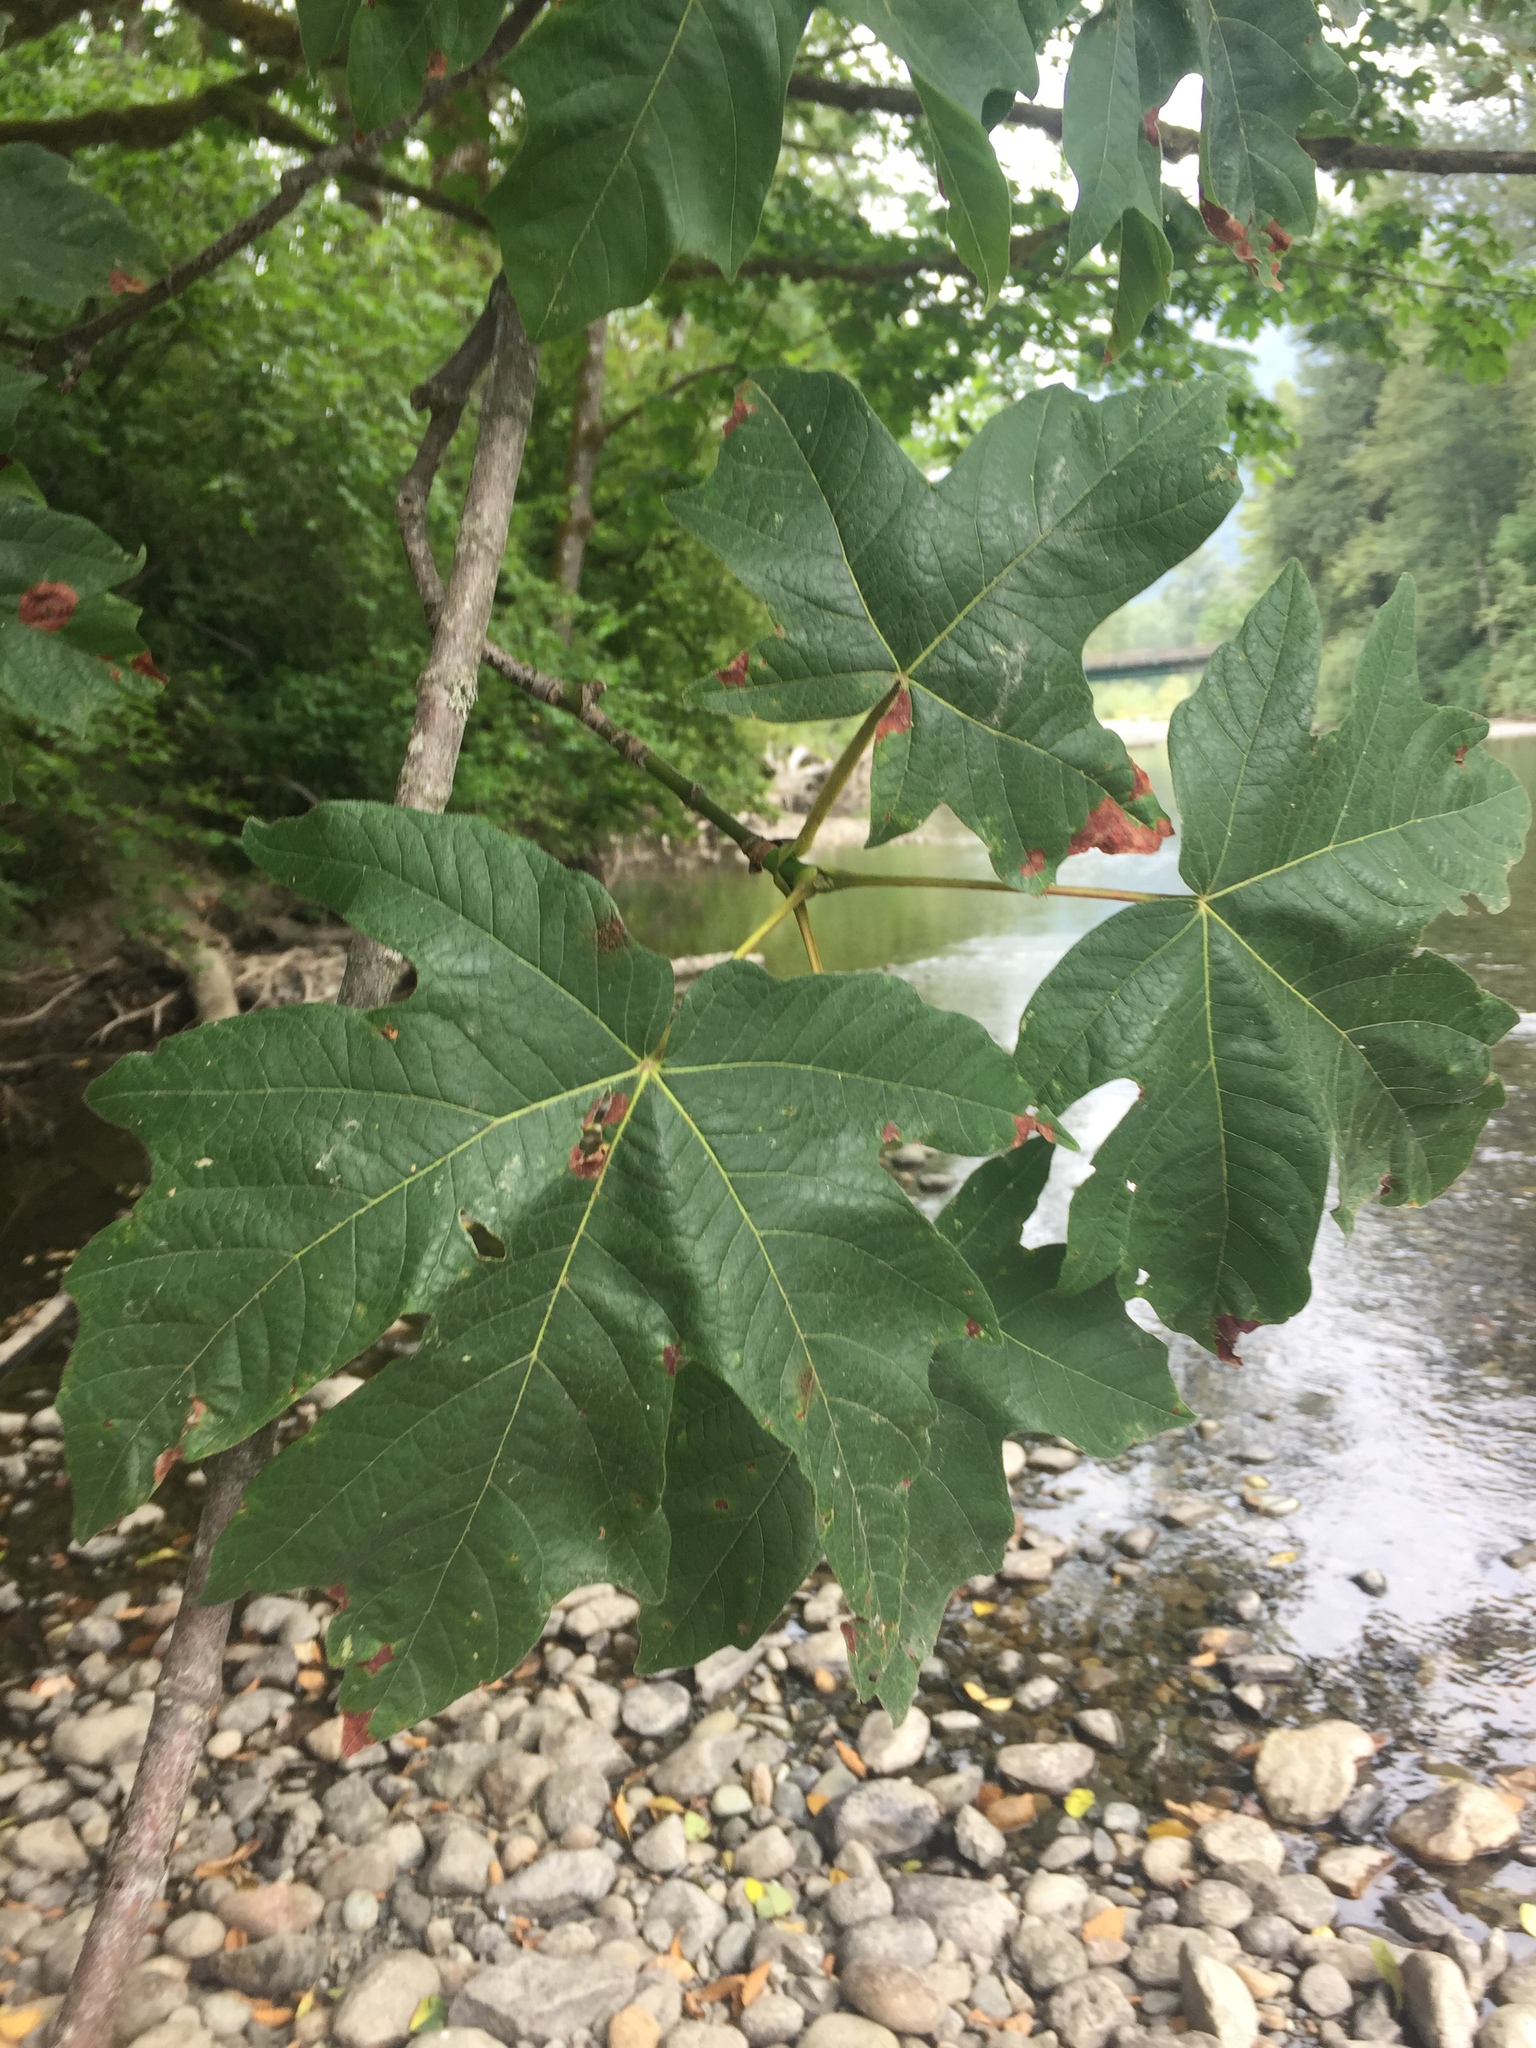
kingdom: Plantae
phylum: Tracheophyta
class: Magnoliopsida
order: Sapindales
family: Sapindaceae
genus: Acer
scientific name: Acer macrophyllum
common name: Oregon maple
